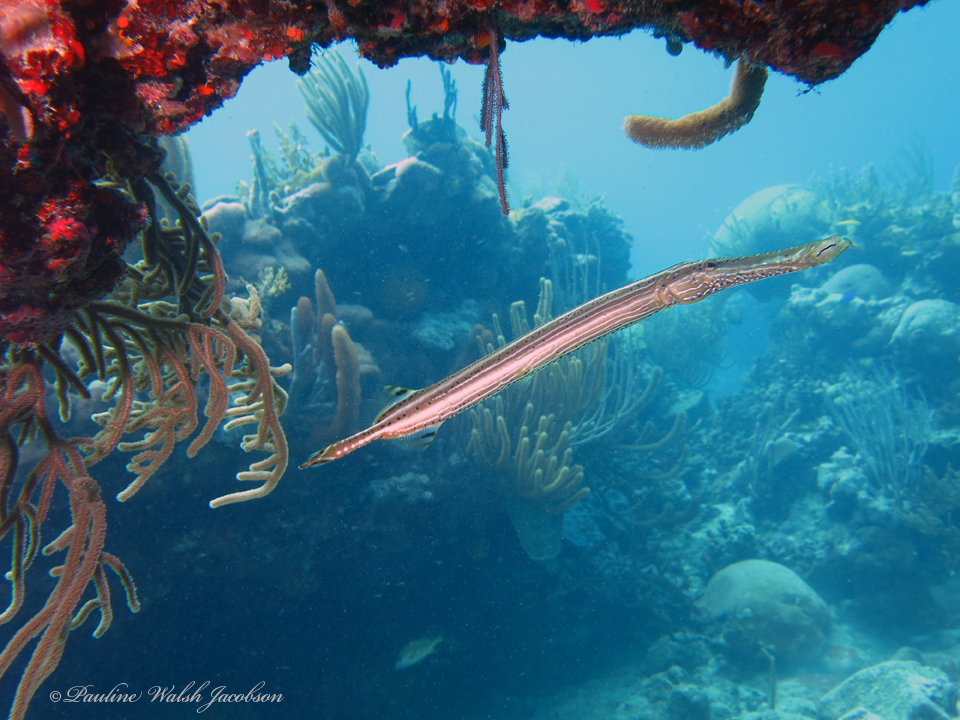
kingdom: Animalia
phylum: Chordata
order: Syngnathiformes
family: Aulostomidae
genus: Aulostomus
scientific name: Aulostomus maculatus
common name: West atlantic trumpetfish
